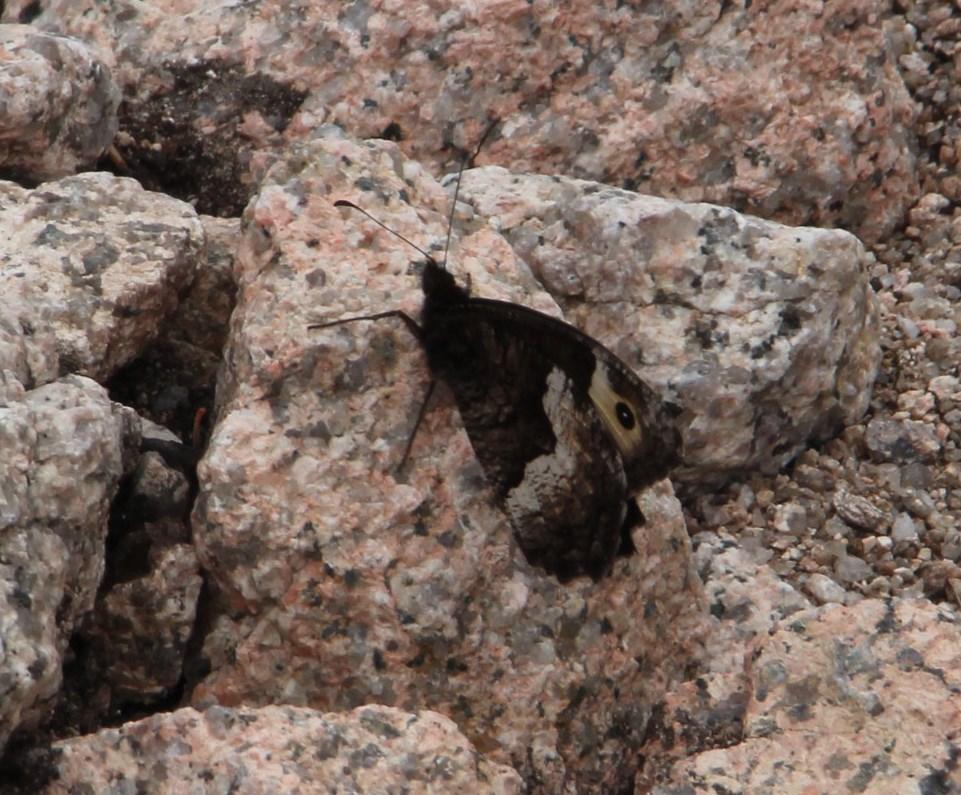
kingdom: Animalia
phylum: Arthropoda
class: Insecta
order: Lepidoptera
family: Nymphalidae
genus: Hipparchia
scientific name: Hipparchia hermione
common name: Rock grayling
